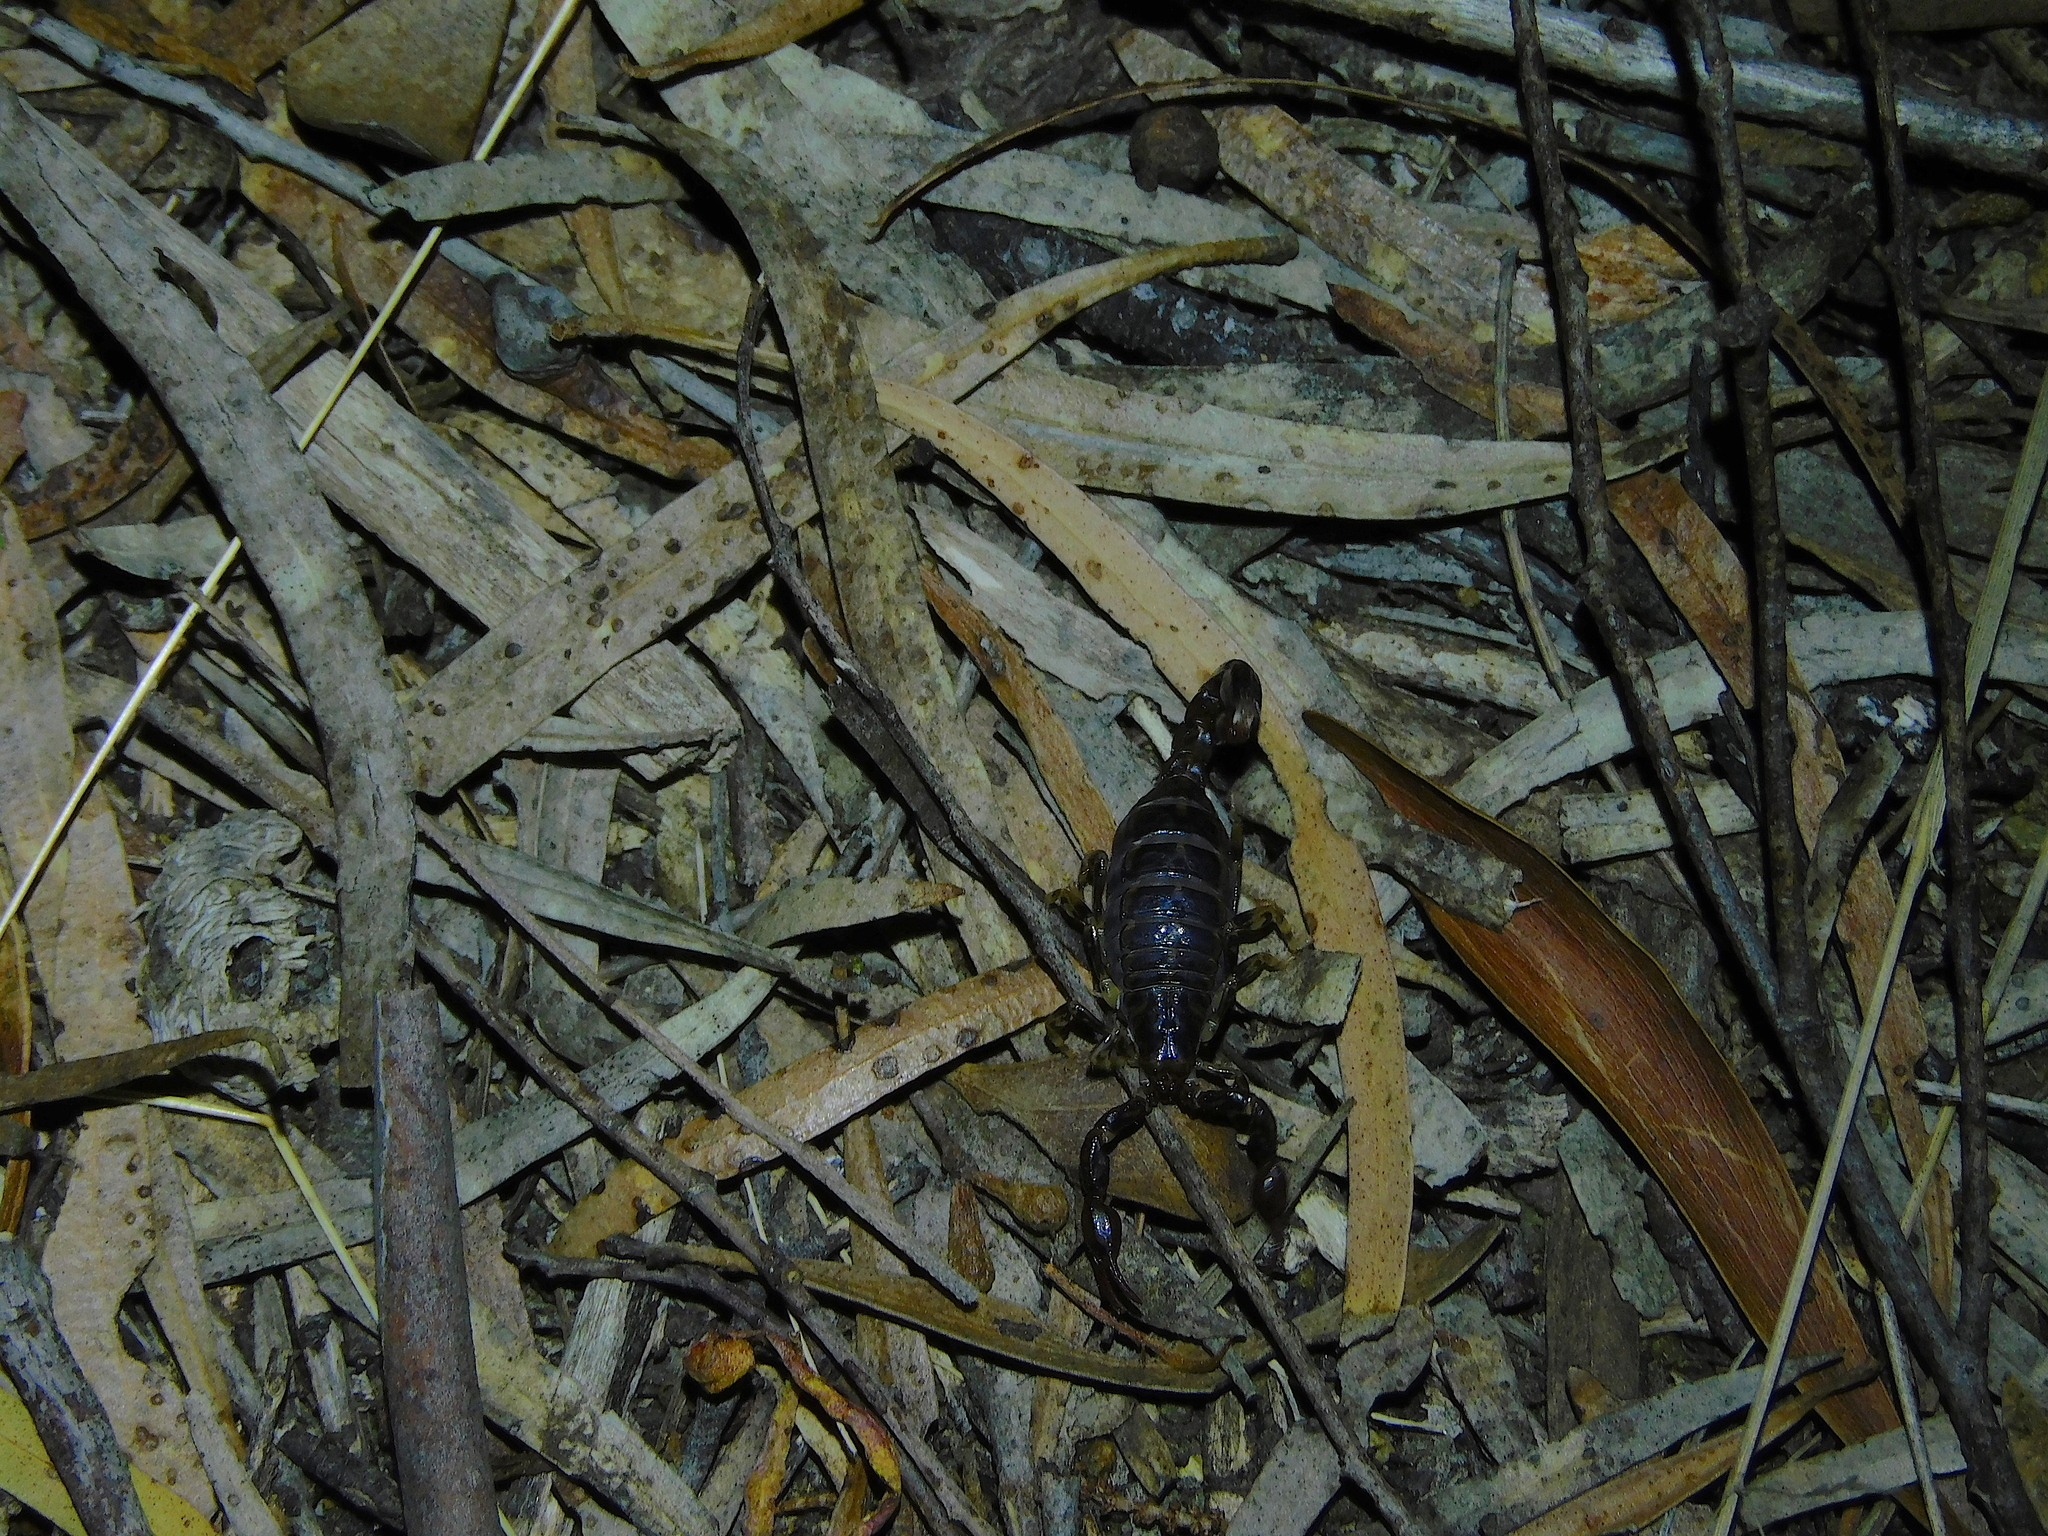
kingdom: Animalia
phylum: Arthropoda
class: Arachnida
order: Scorpiones
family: Bothriuridae
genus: Cercophonius
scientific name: Cercophonius squama
